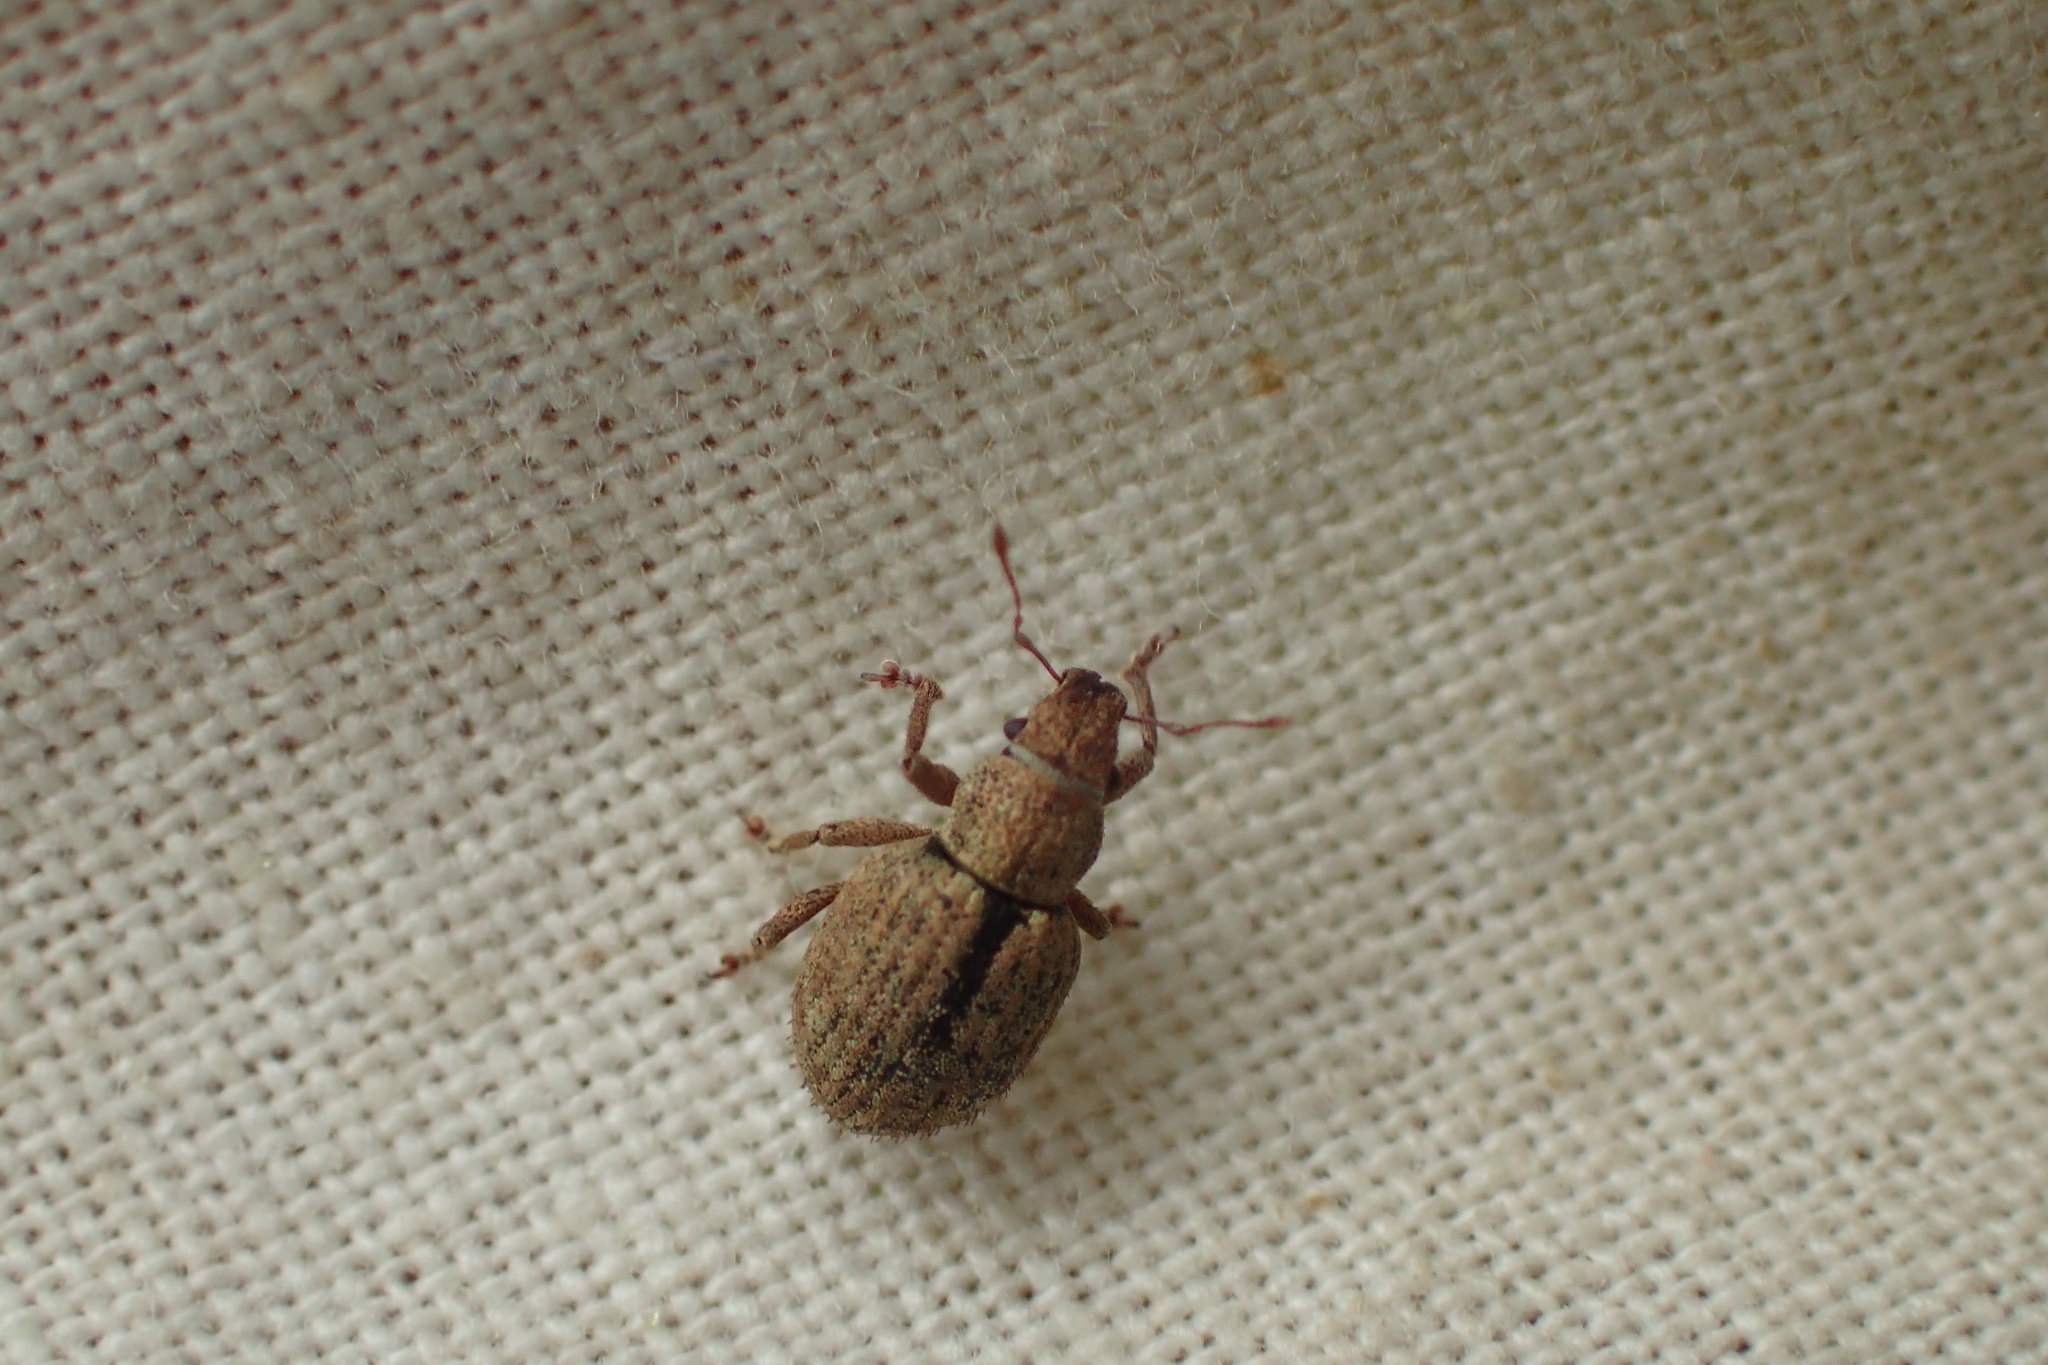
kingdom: Animalia
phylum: Arthropoda
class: Insecta
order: Coleoptera
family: Curculionidae
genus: Strophosoma
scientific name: Strophosoma melanogrammum
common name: Weevil
